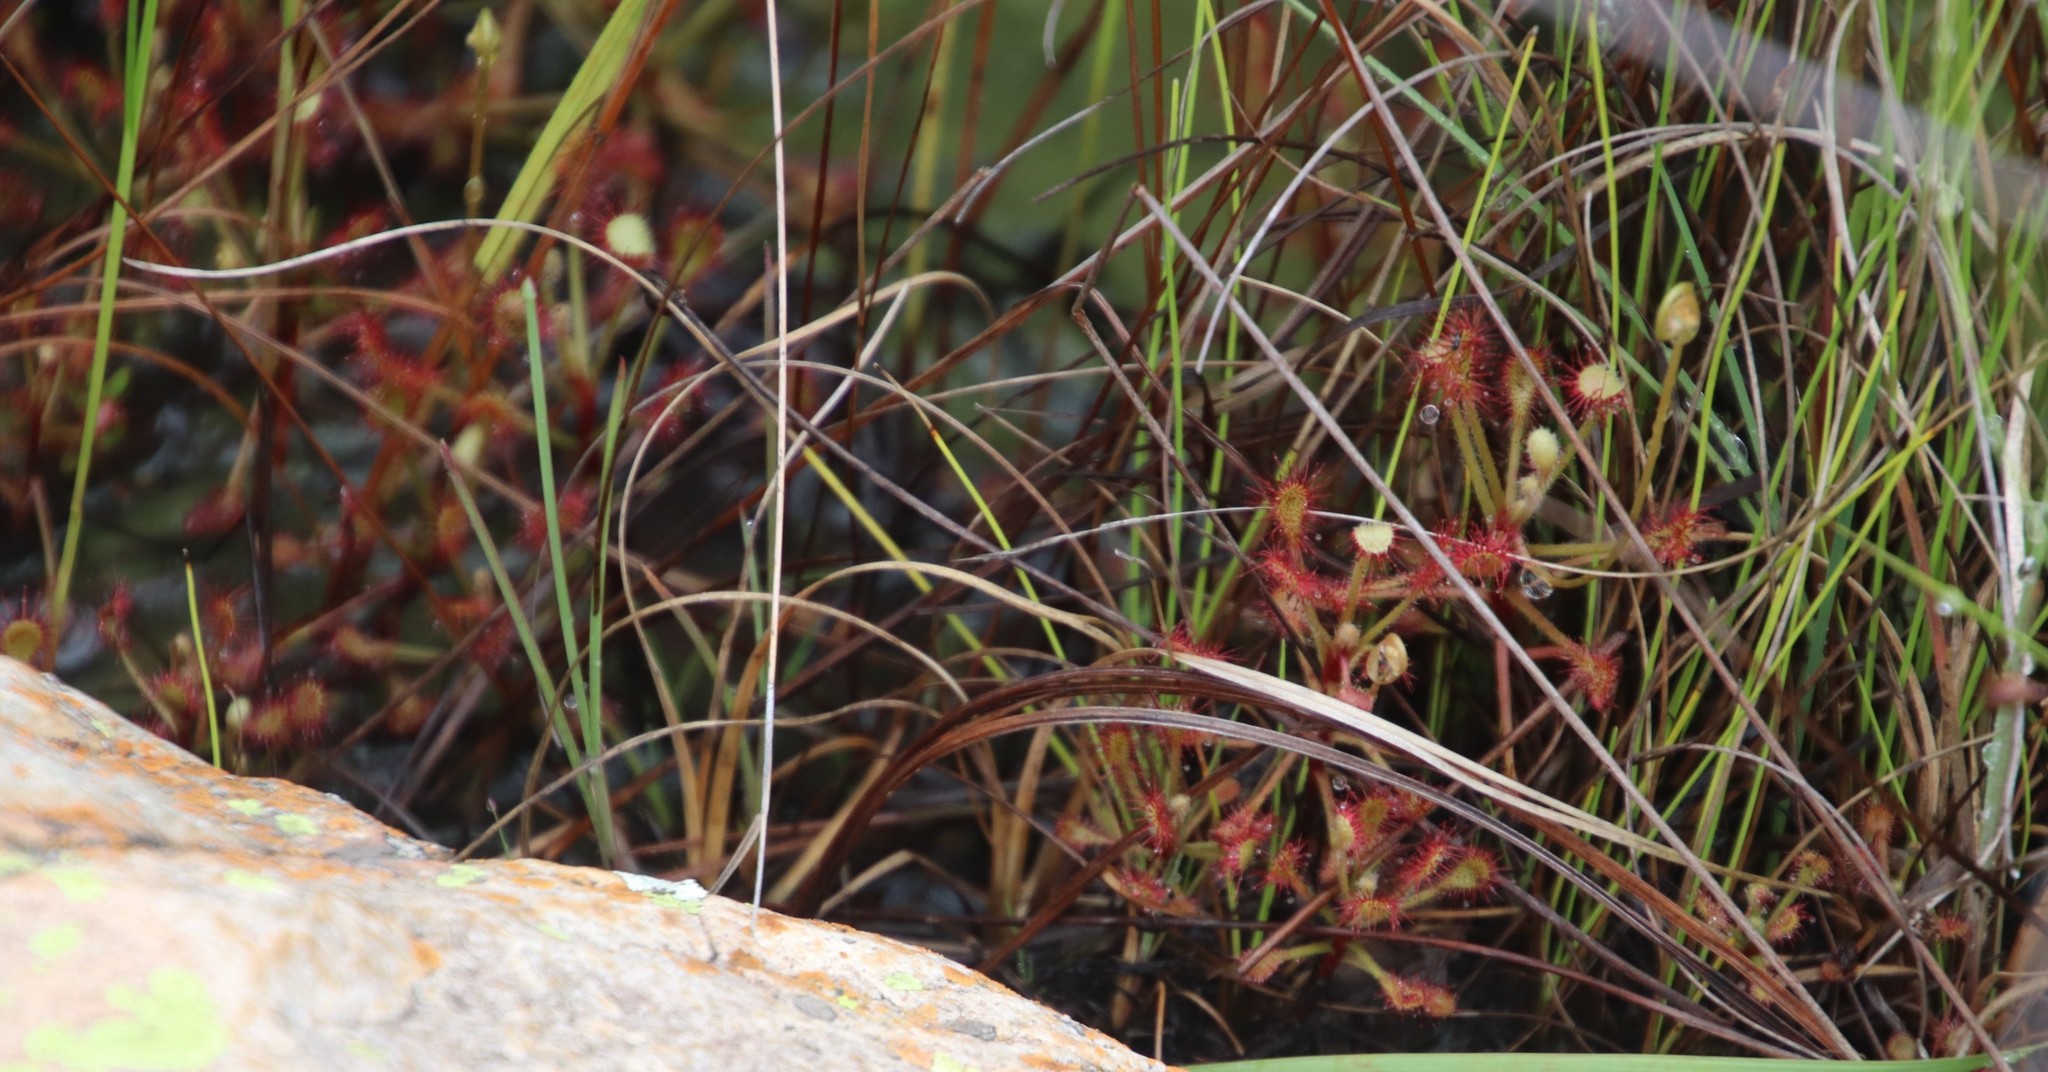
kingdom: Plantae
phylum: Tracheophyta
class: Magnoliopsida
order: Caryophyllales
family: Droseraceae
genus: Drosera
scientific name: Drosera madagascariensis
